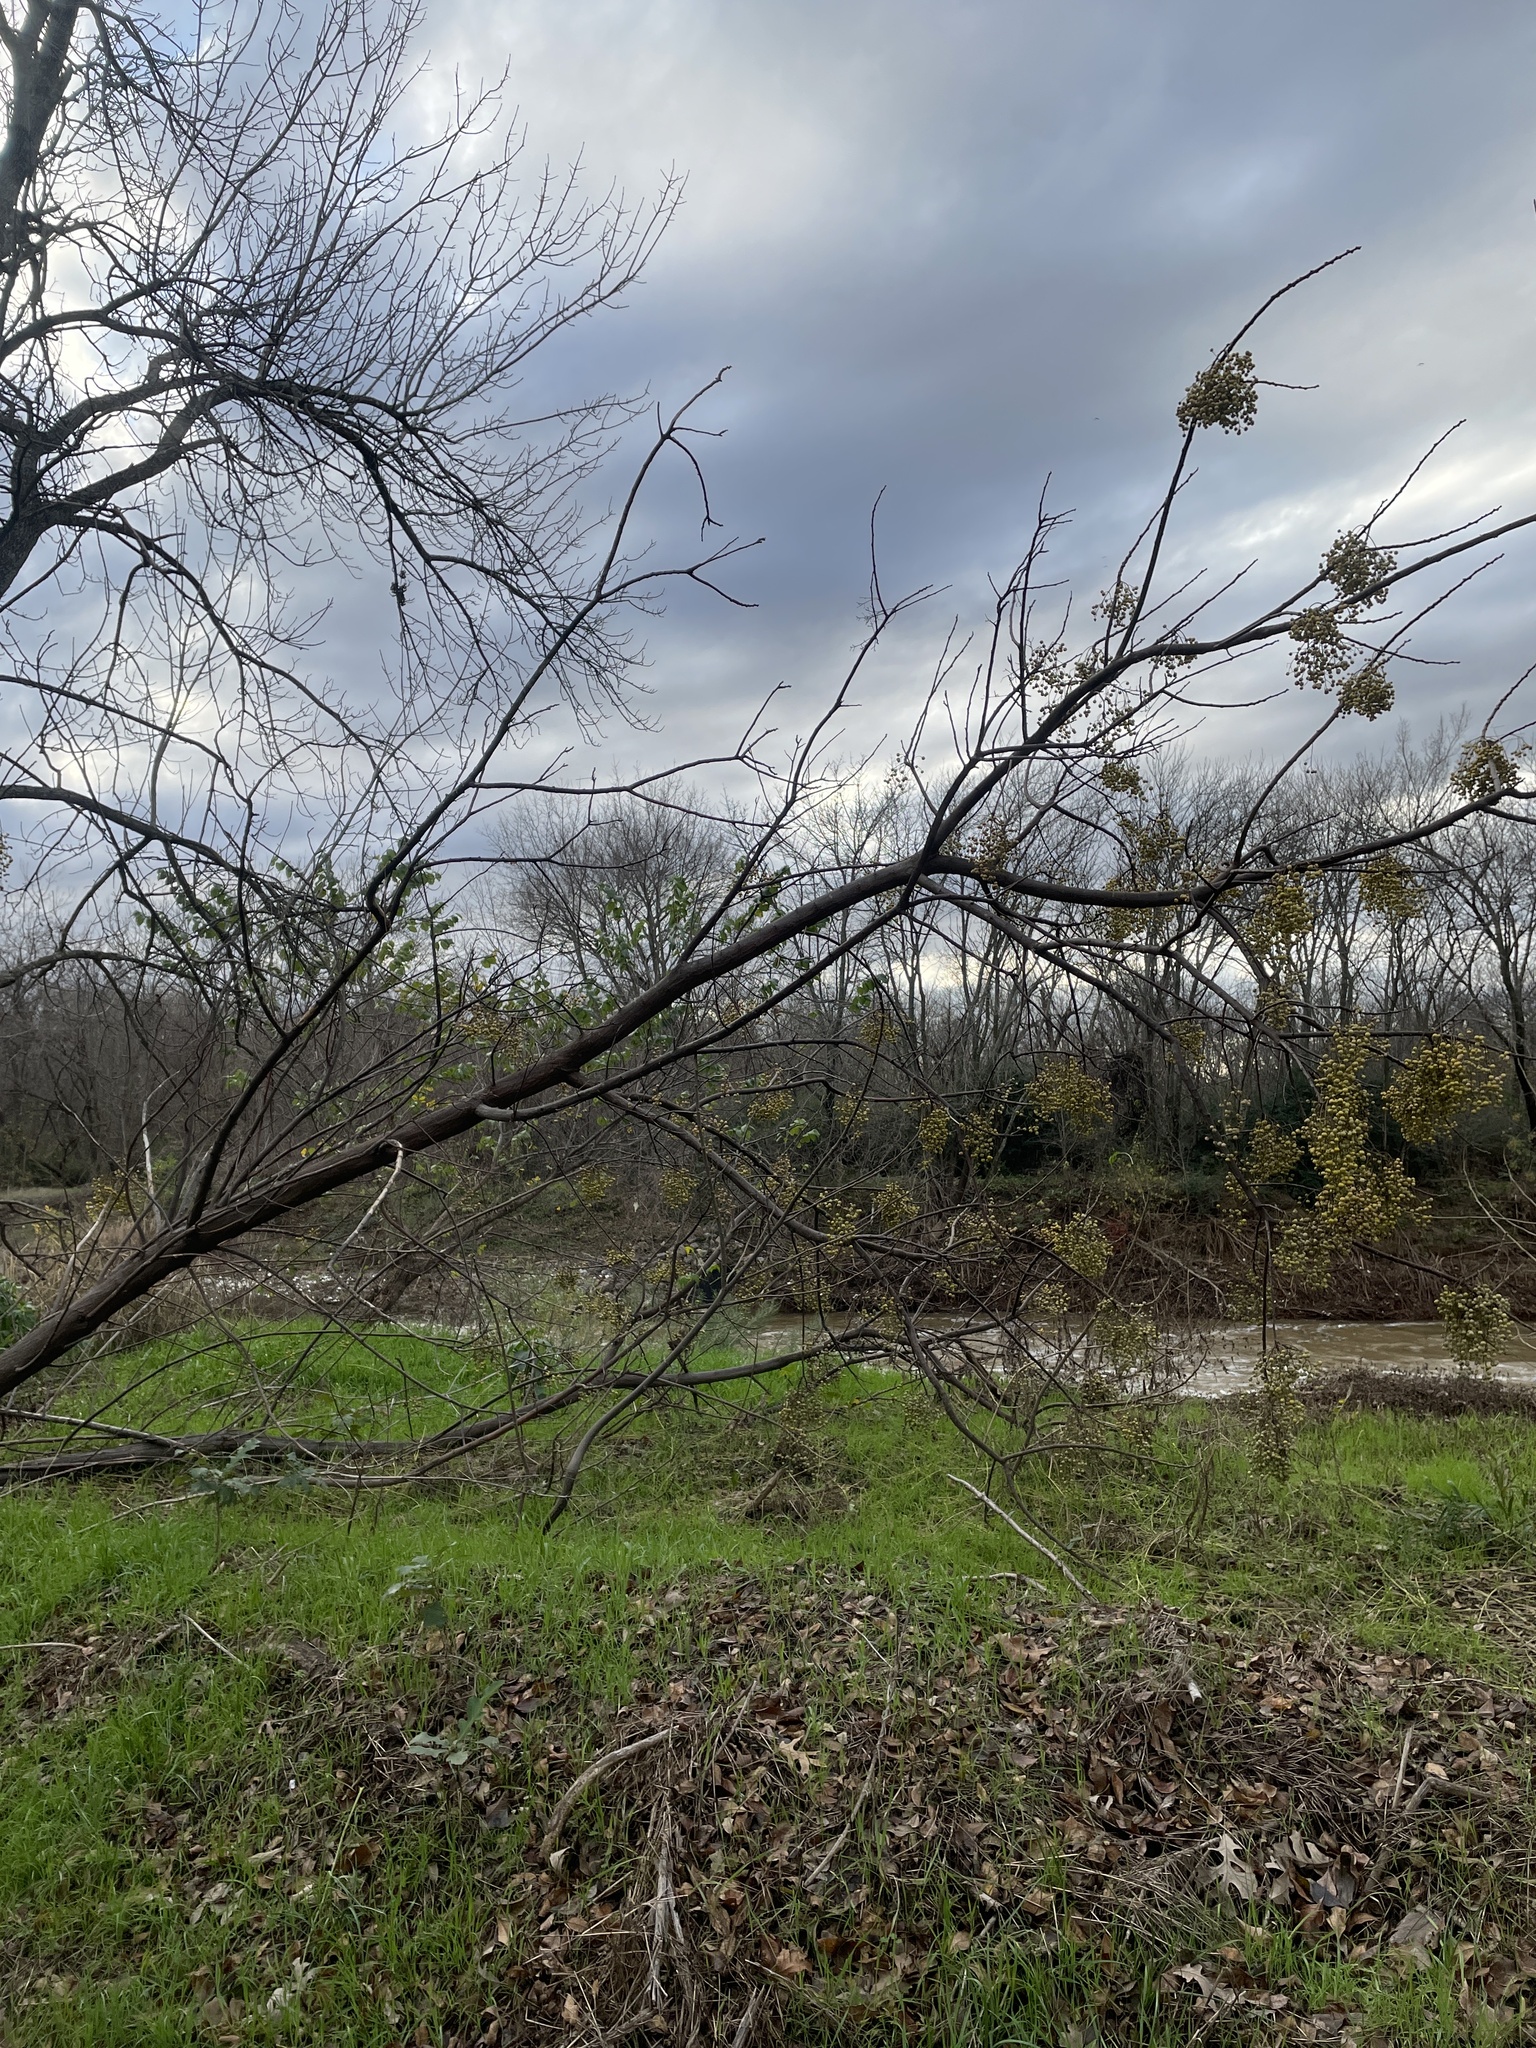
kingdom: Plantae
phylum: Tracheophyta
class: Magnoliopsida
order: Sapindales
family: Meliaceae
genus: Melia
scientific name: Melia azedarach
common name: Chinaberrytree
